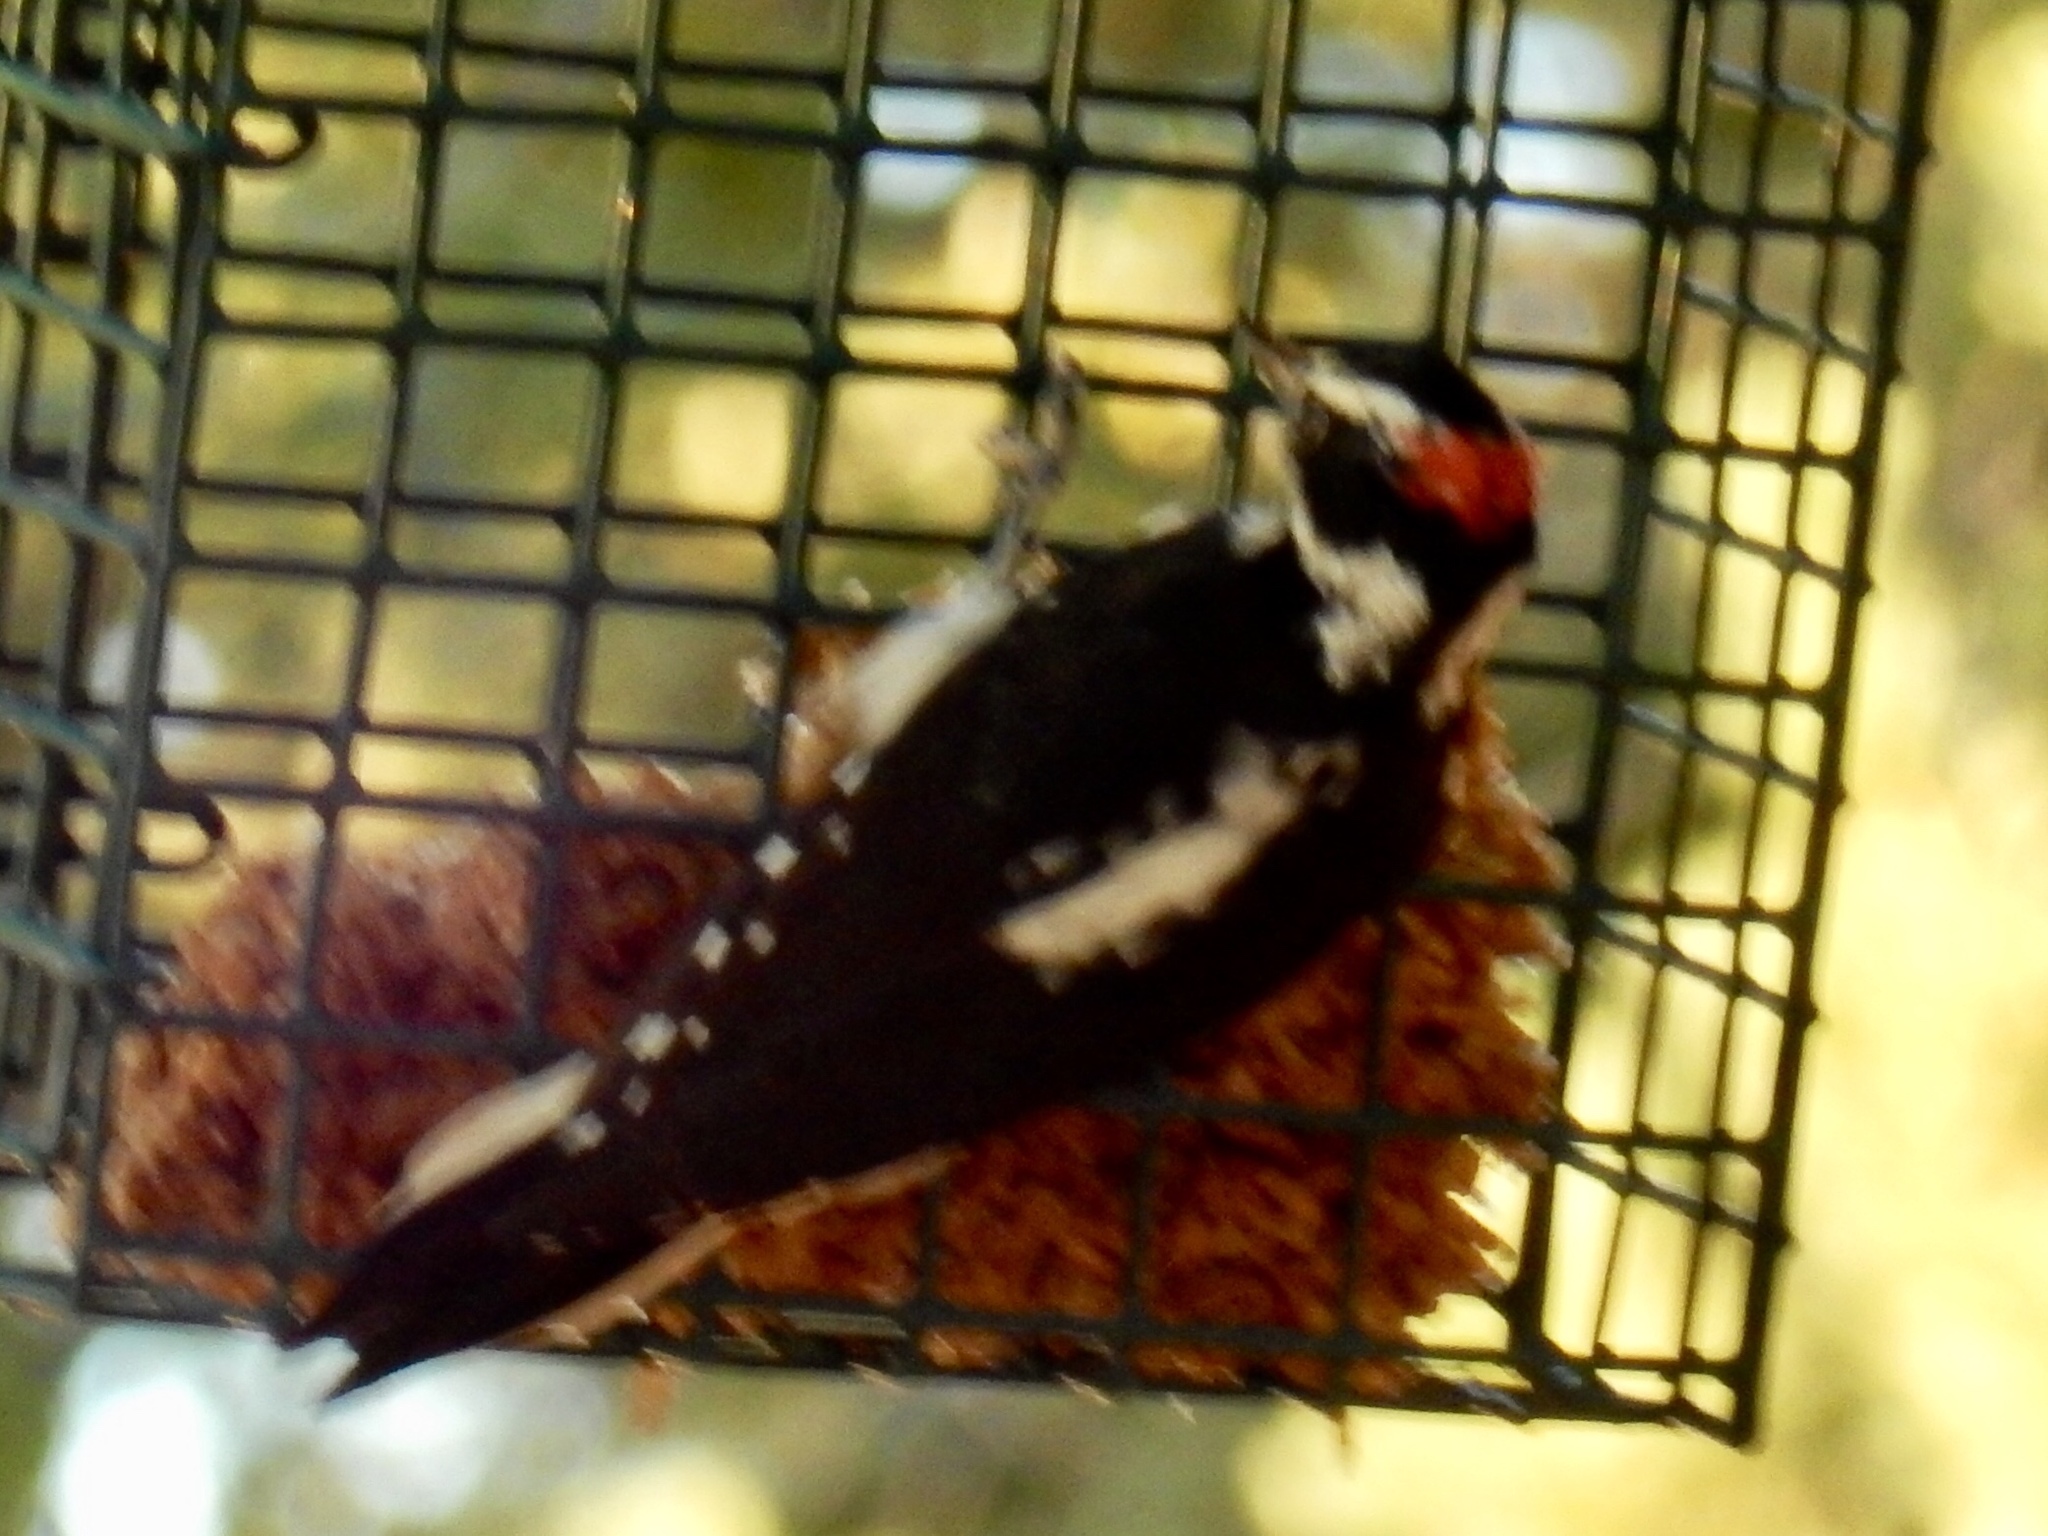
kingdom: Animalia
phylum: Chordata
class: Aves
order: Piciformes
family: Picidae
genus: Leuconotopicus
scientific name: Leuconotopicus villosus
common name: Hairy woodpecker
